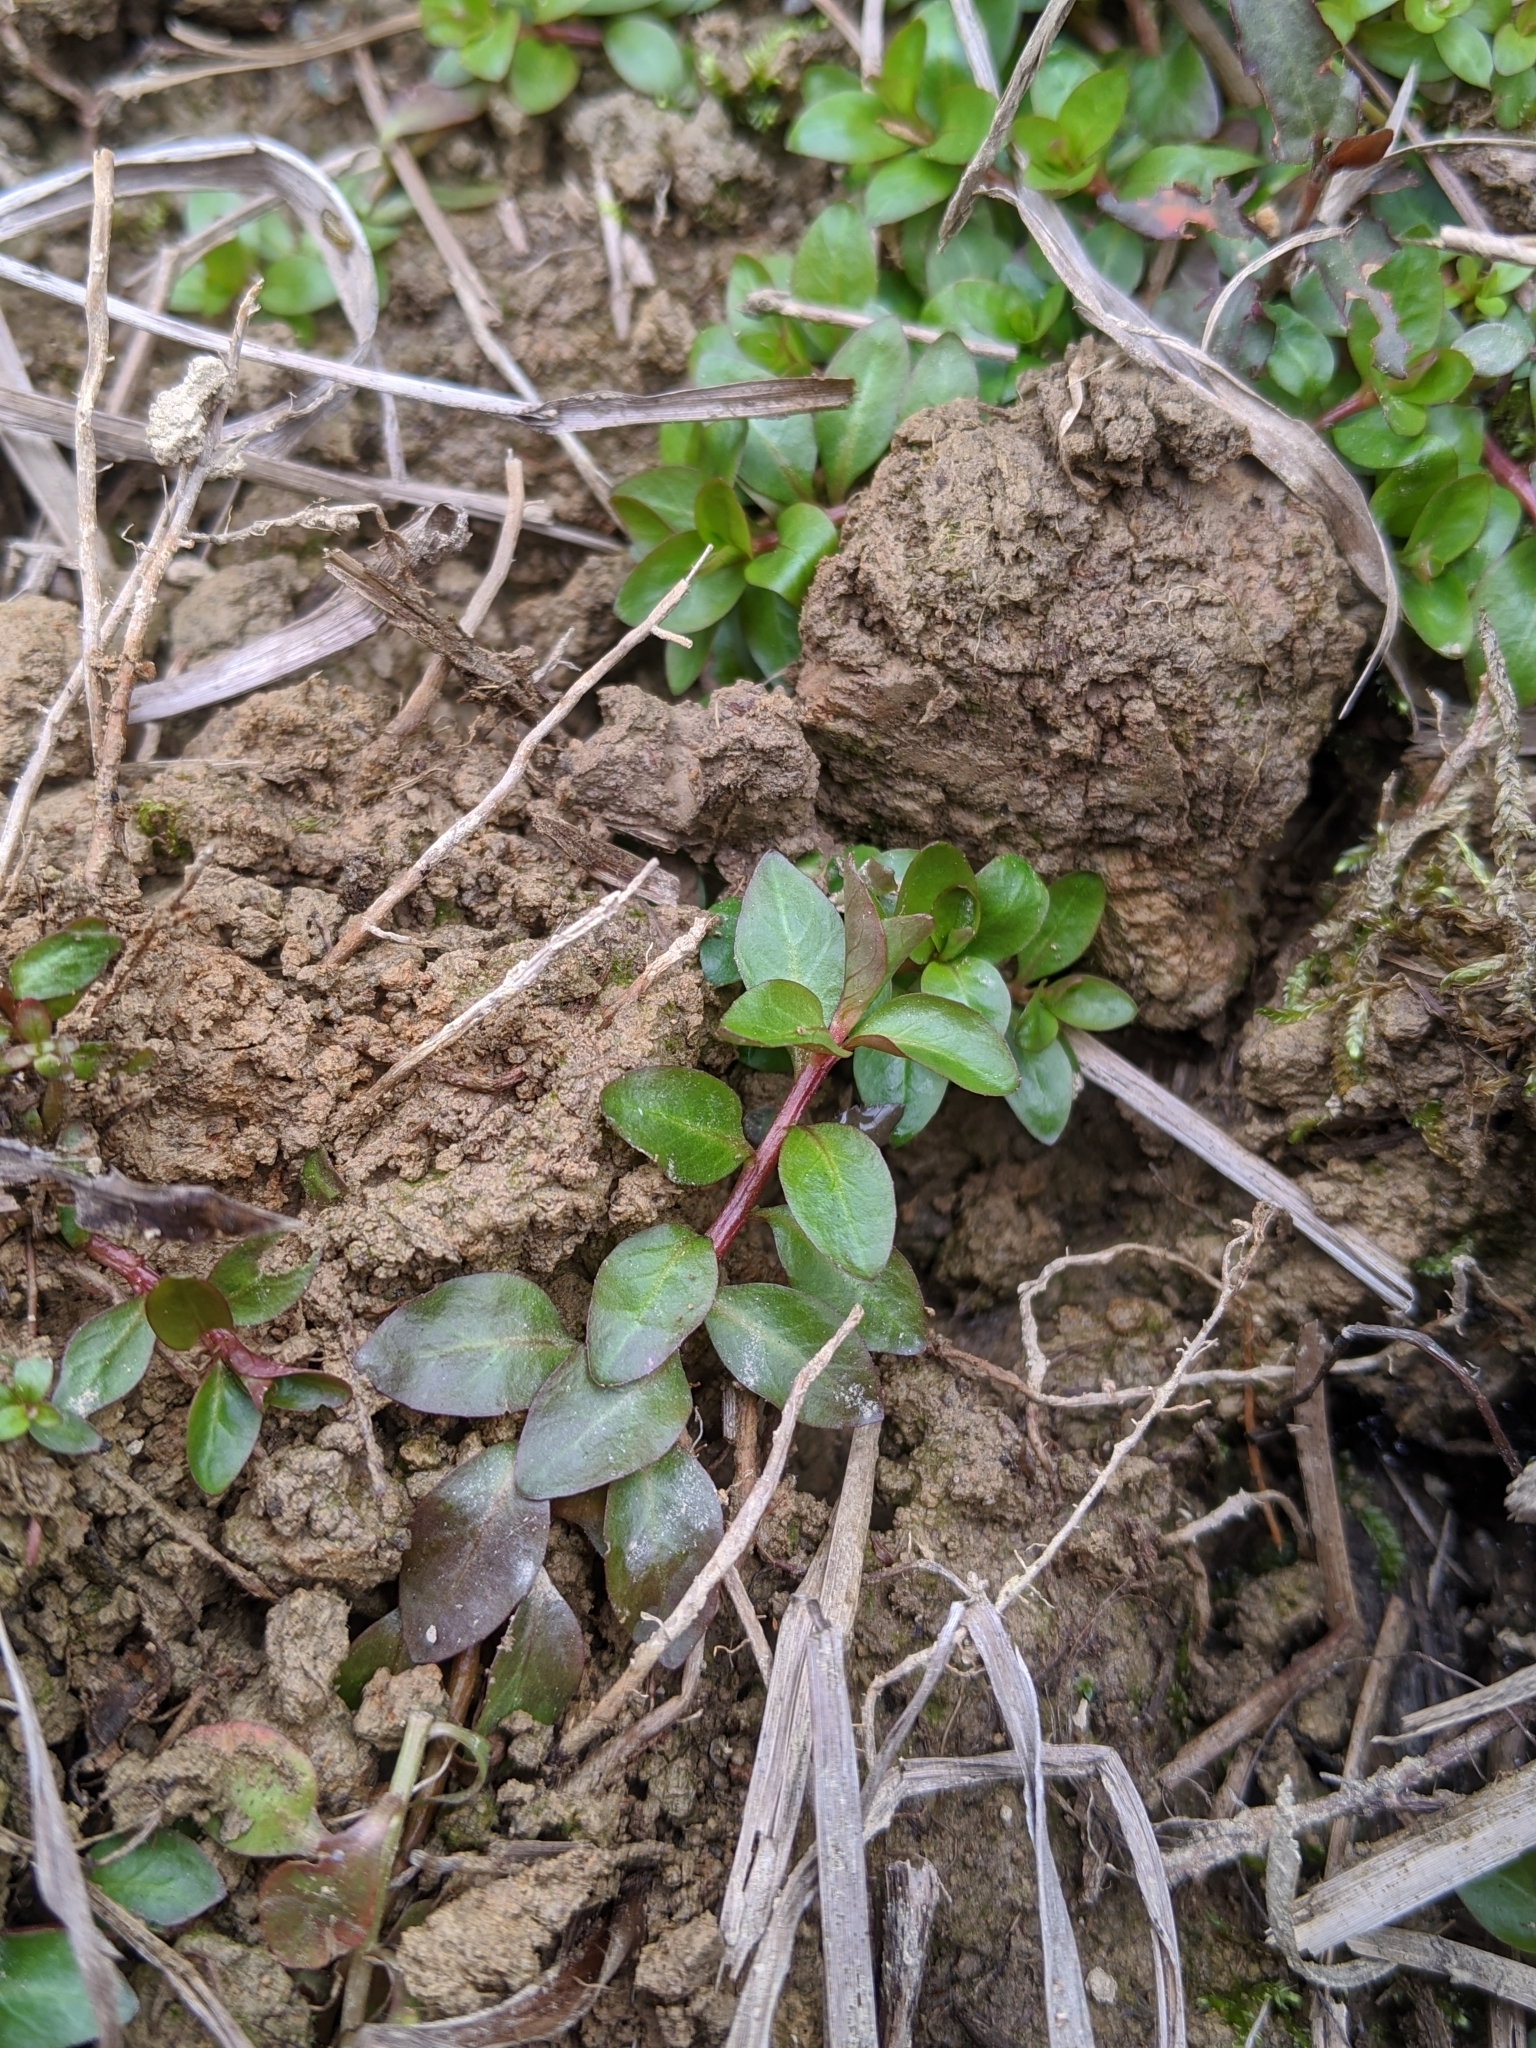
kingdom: Plantae
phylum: Tracheophyta
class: Magnoliopsida
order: Myrtales
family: Onagraceae
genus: Ludwigia
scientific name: Ludwigia ovalis
